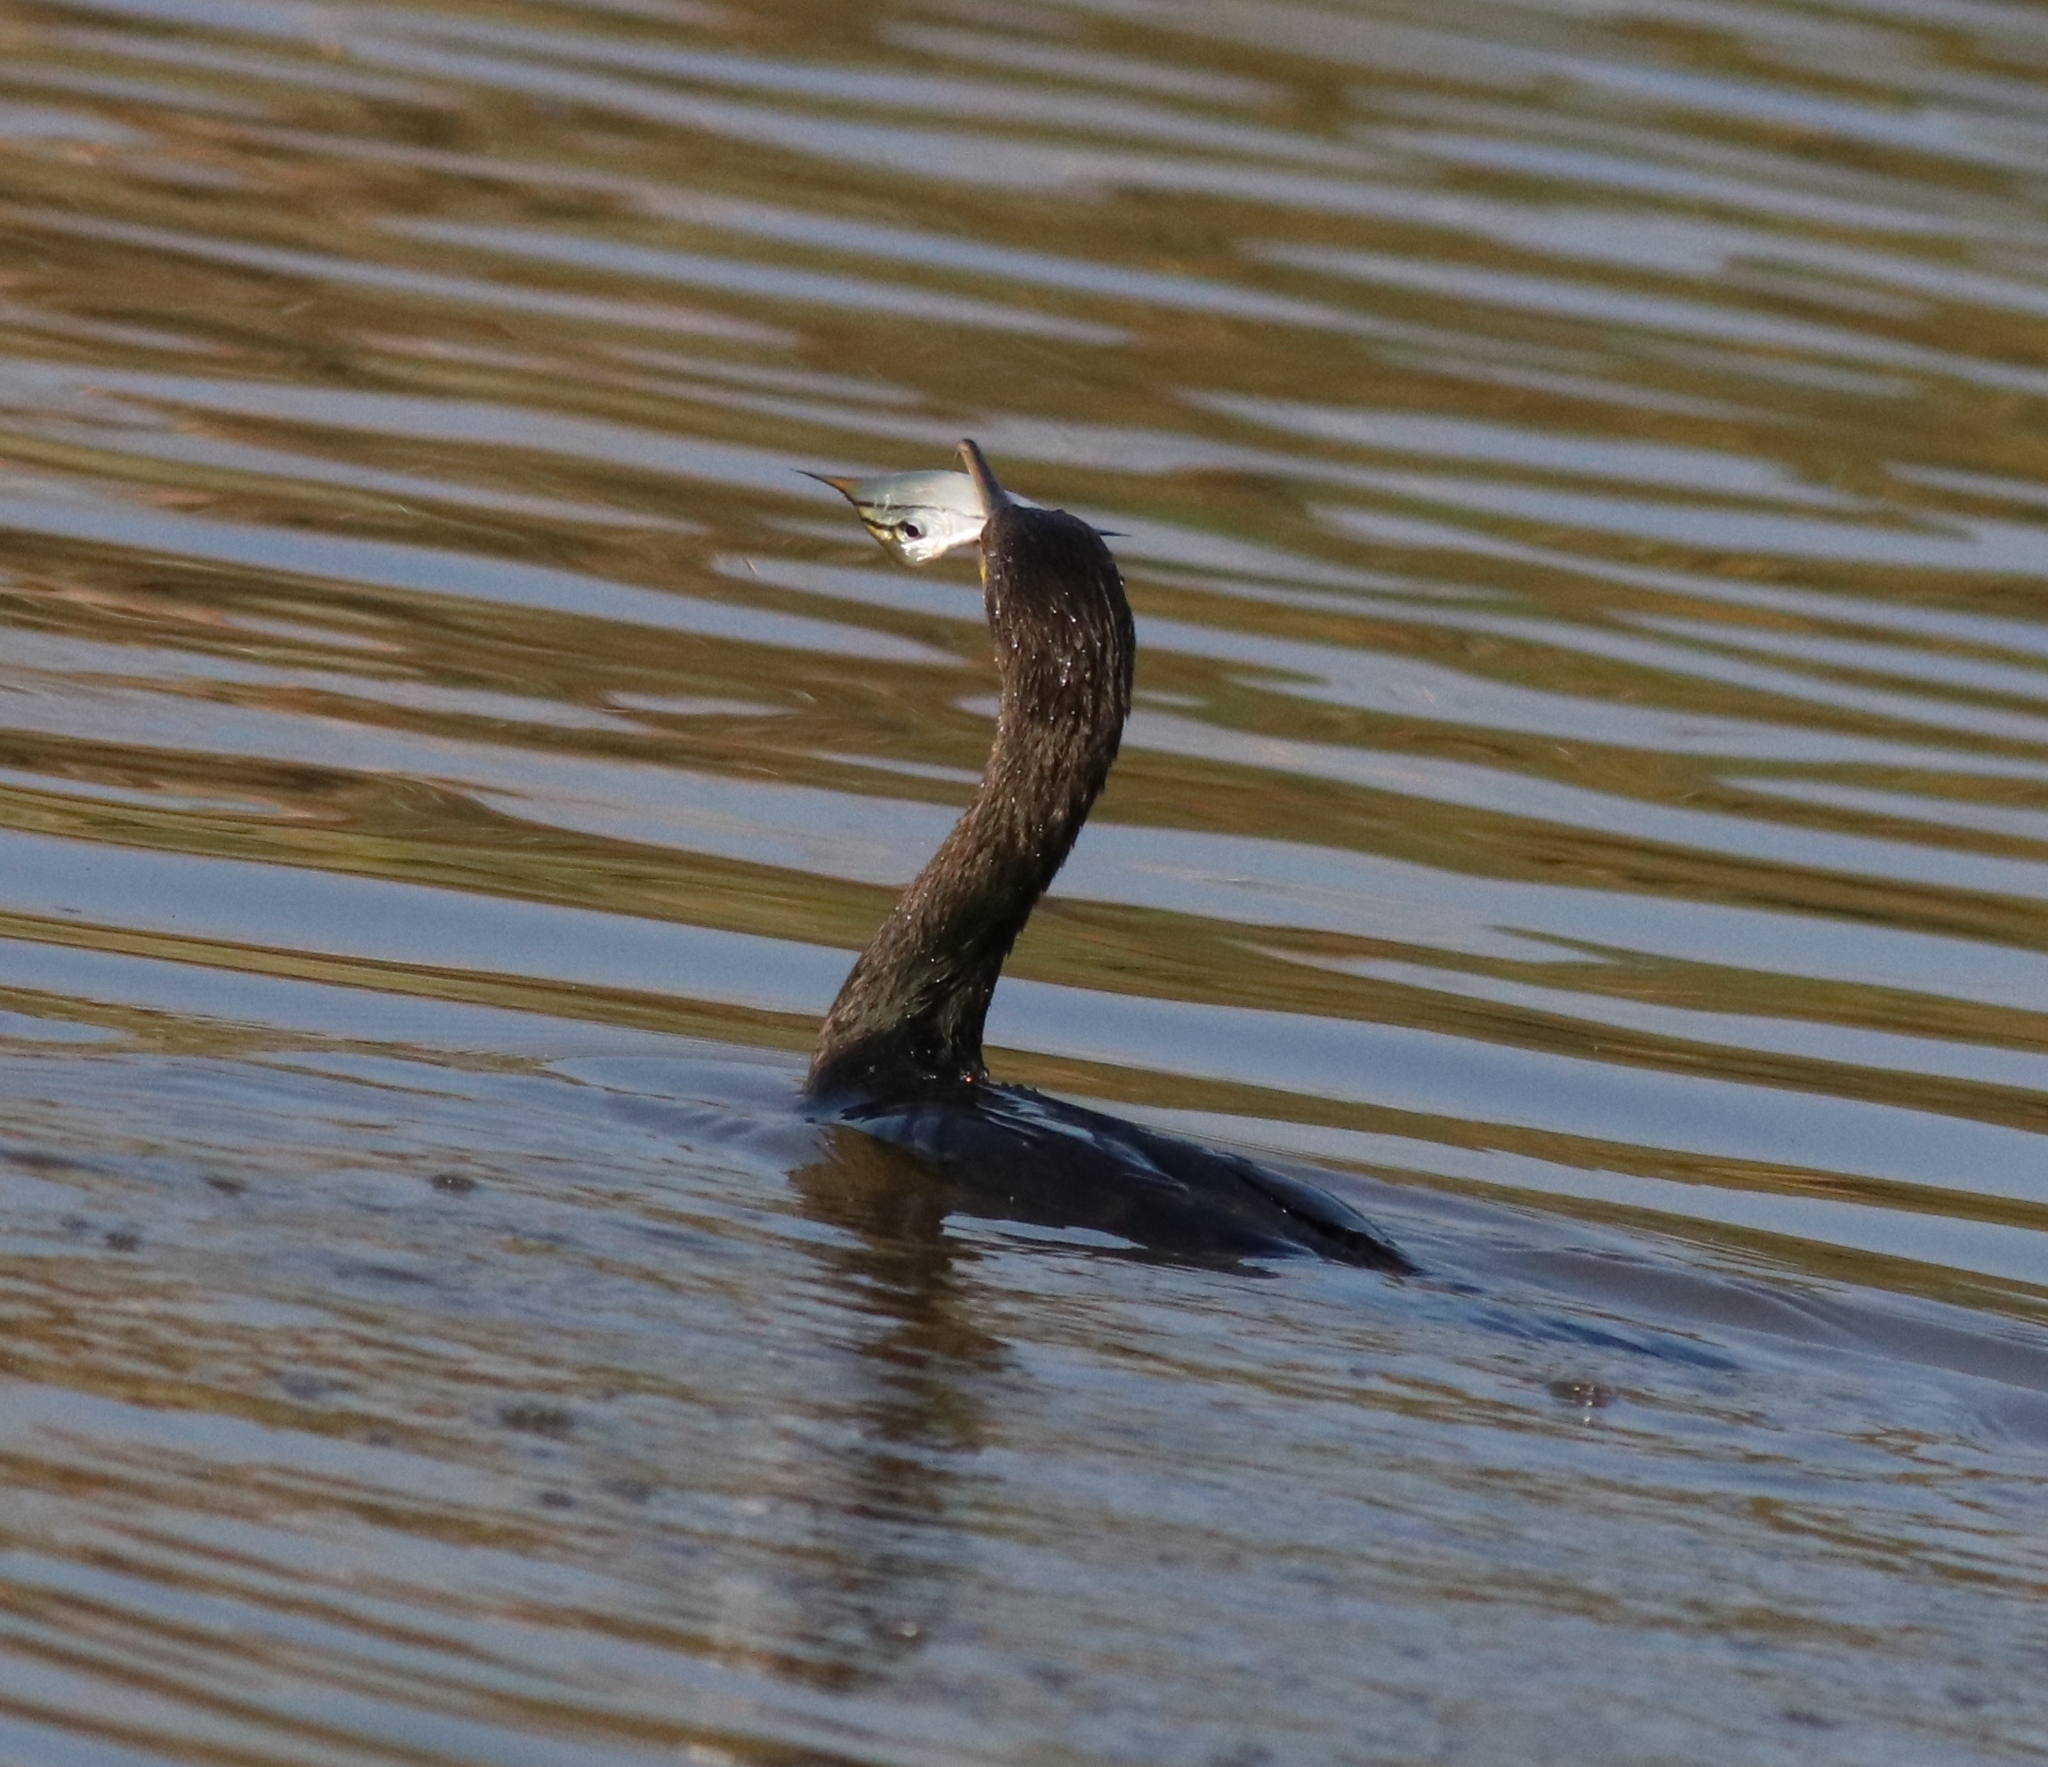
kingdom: Animalia
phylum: Chordata
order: Perciformes
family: Monodactylidae
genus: Monodactylus
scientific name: Monodactylus argenteus
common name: Silver moony
